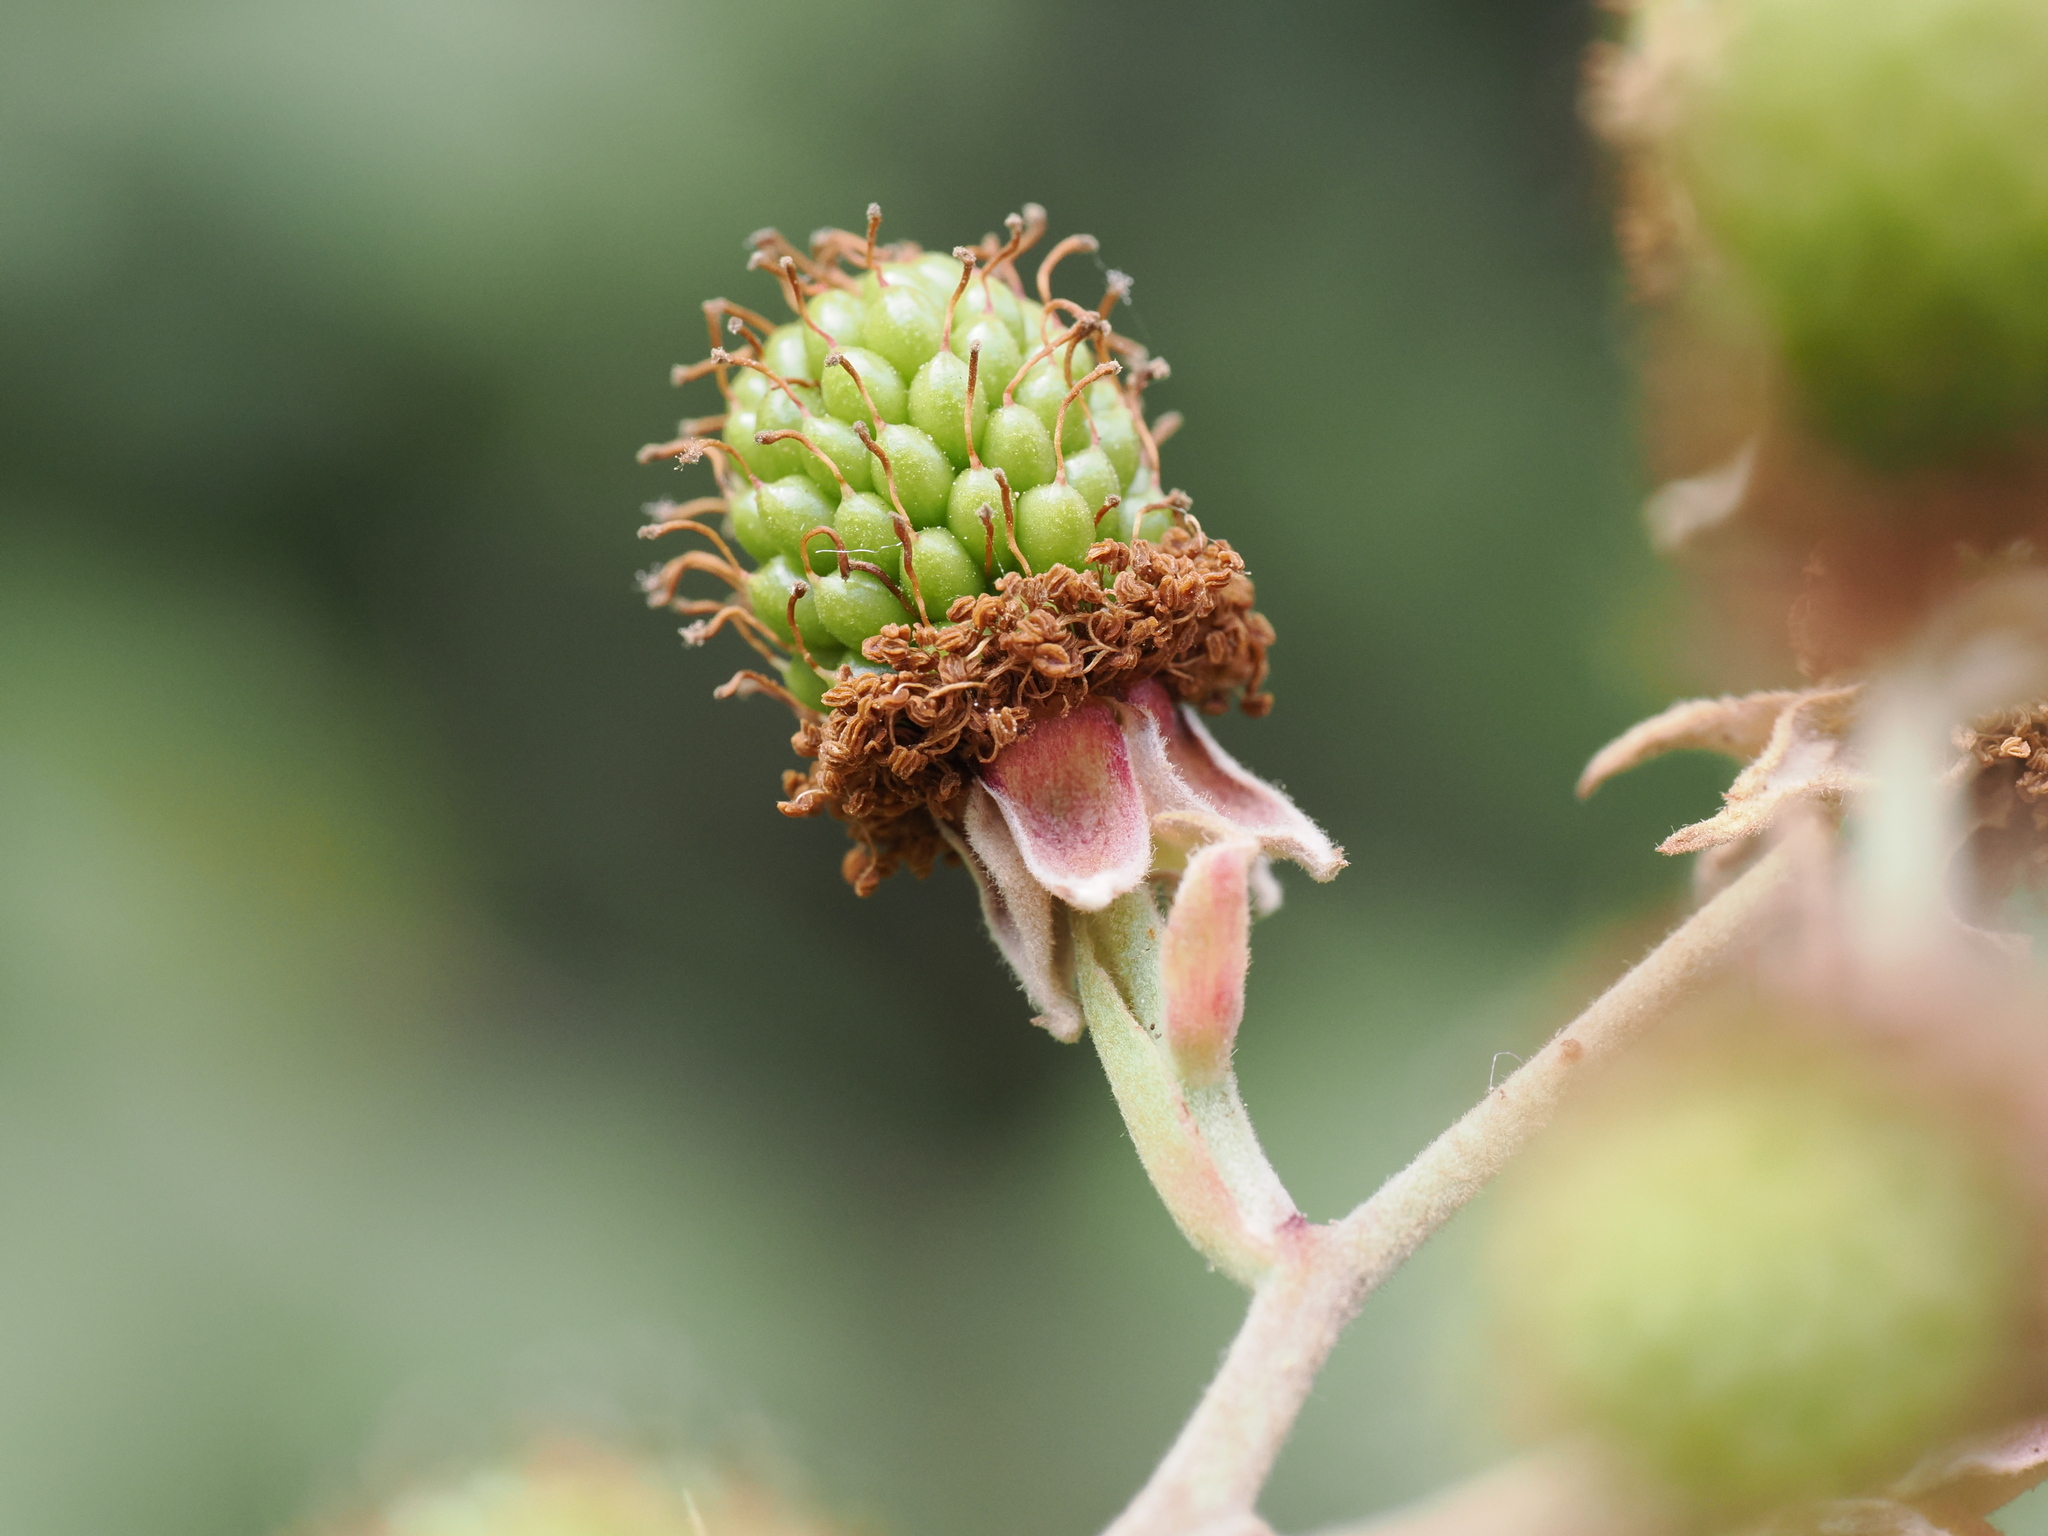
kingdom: Plantae
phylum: Tracheophyta
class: Magnoliopsida
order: Rosales
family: Rosaceae
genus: Rubus
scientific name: Rubus ulmifolius
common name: Elmleaf blackberry
